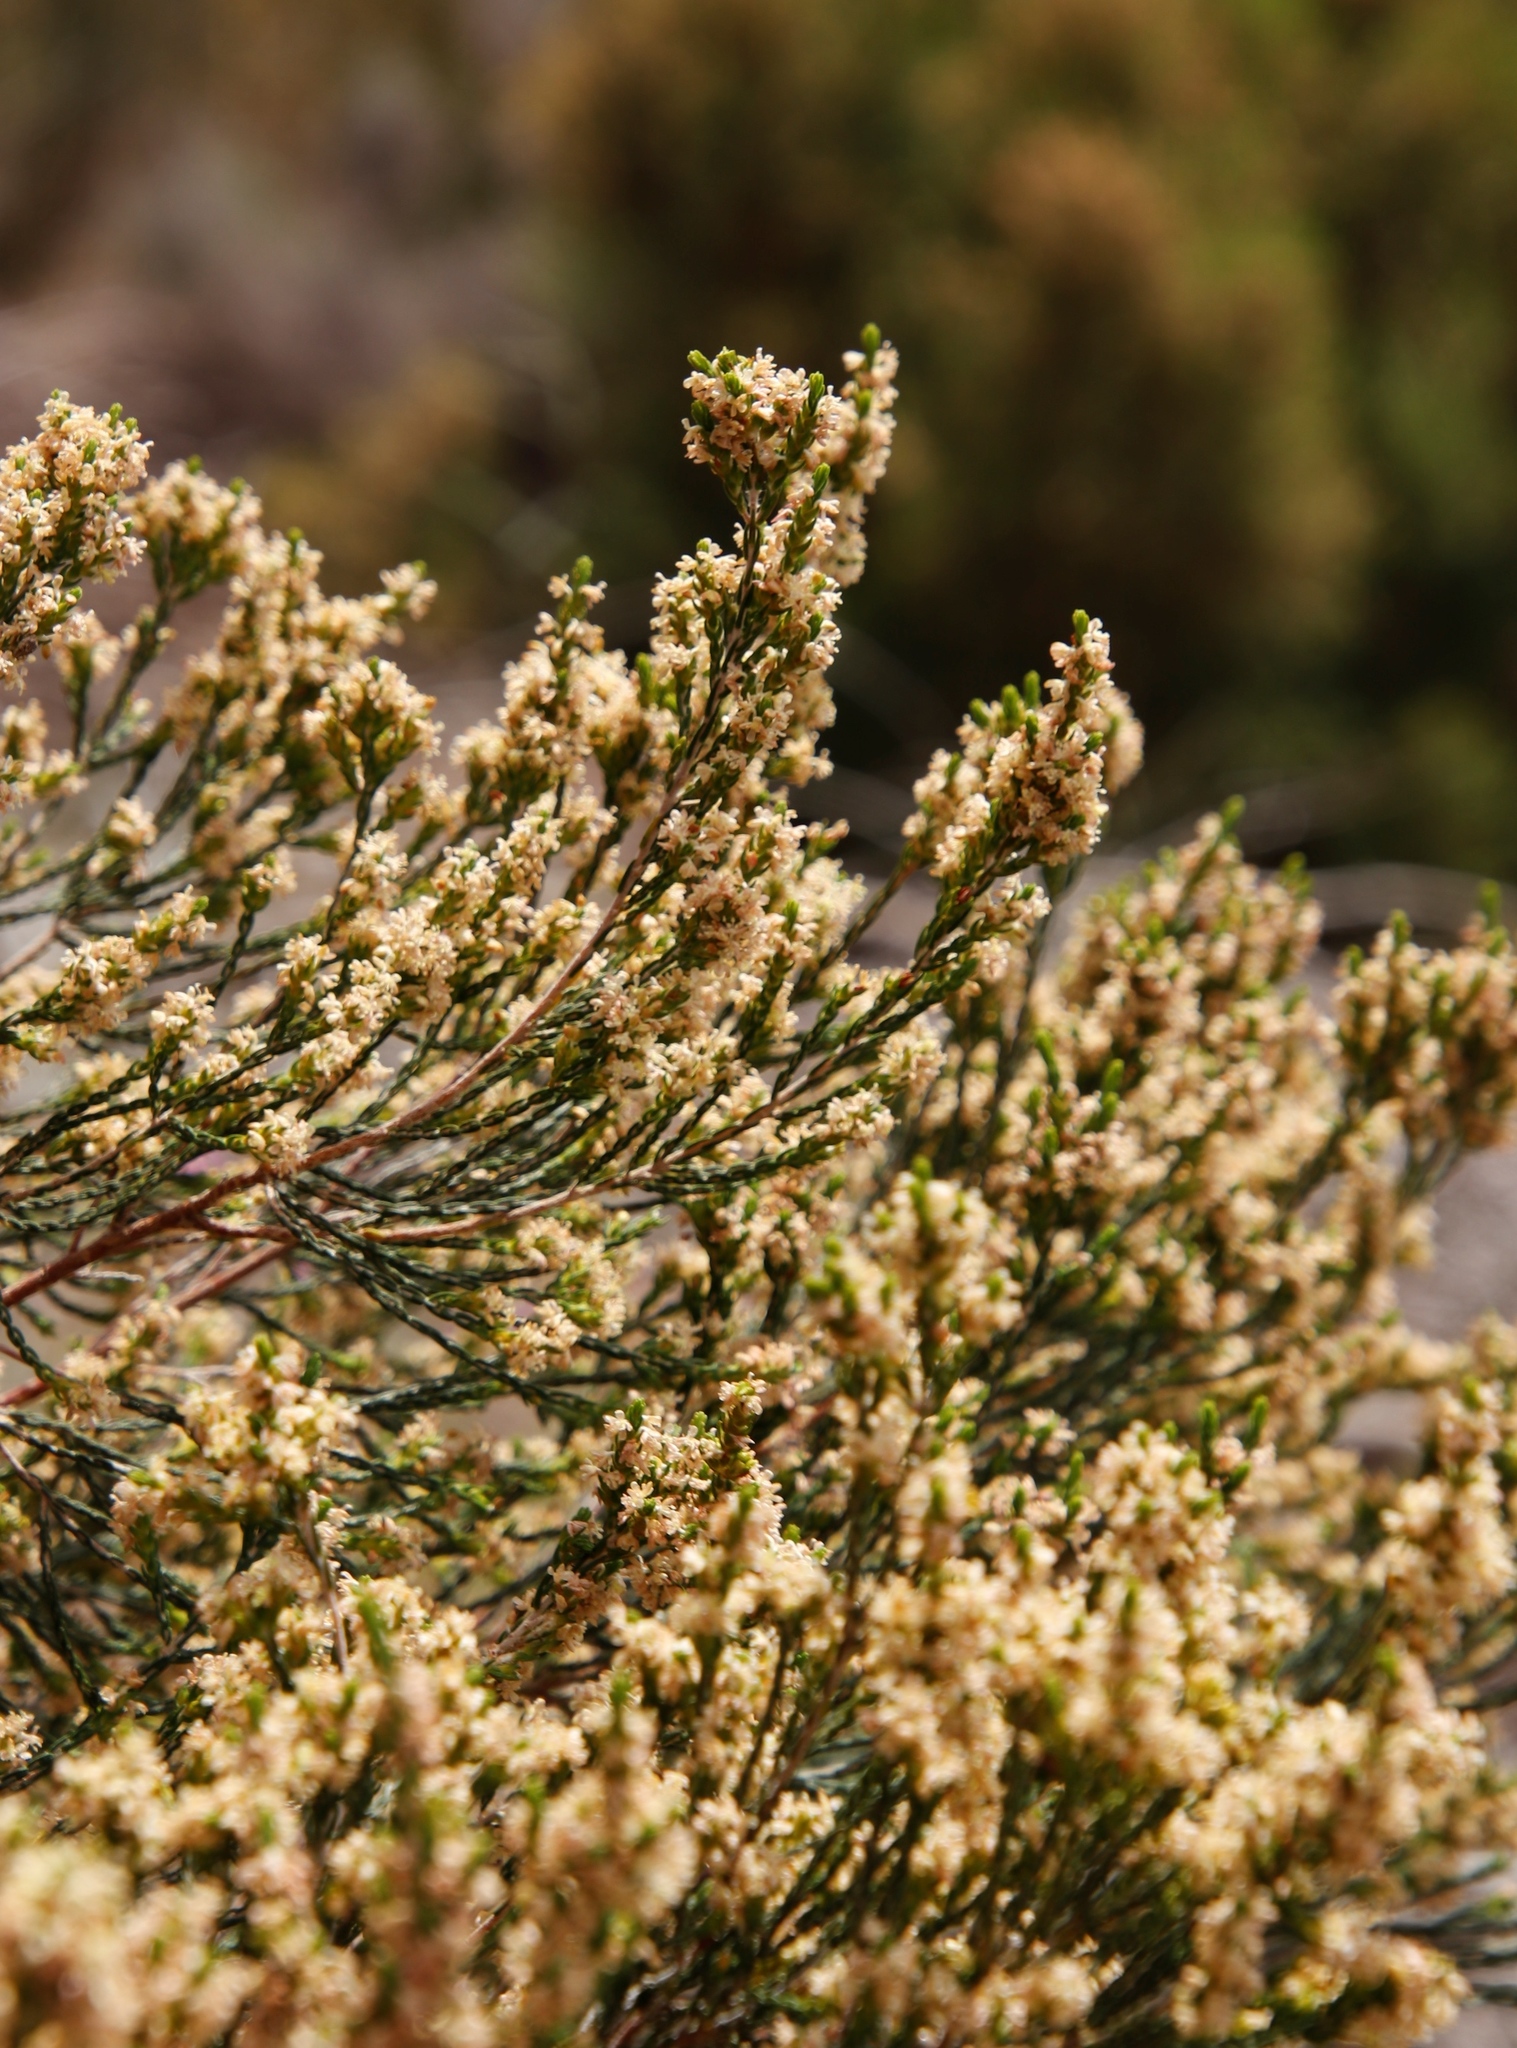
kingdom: Plantae
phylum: Tracheophyta
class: Magnoliopsida
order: Malvales
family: Thymelaeaceae
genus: Passerina
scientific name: Passerina corymbosa
